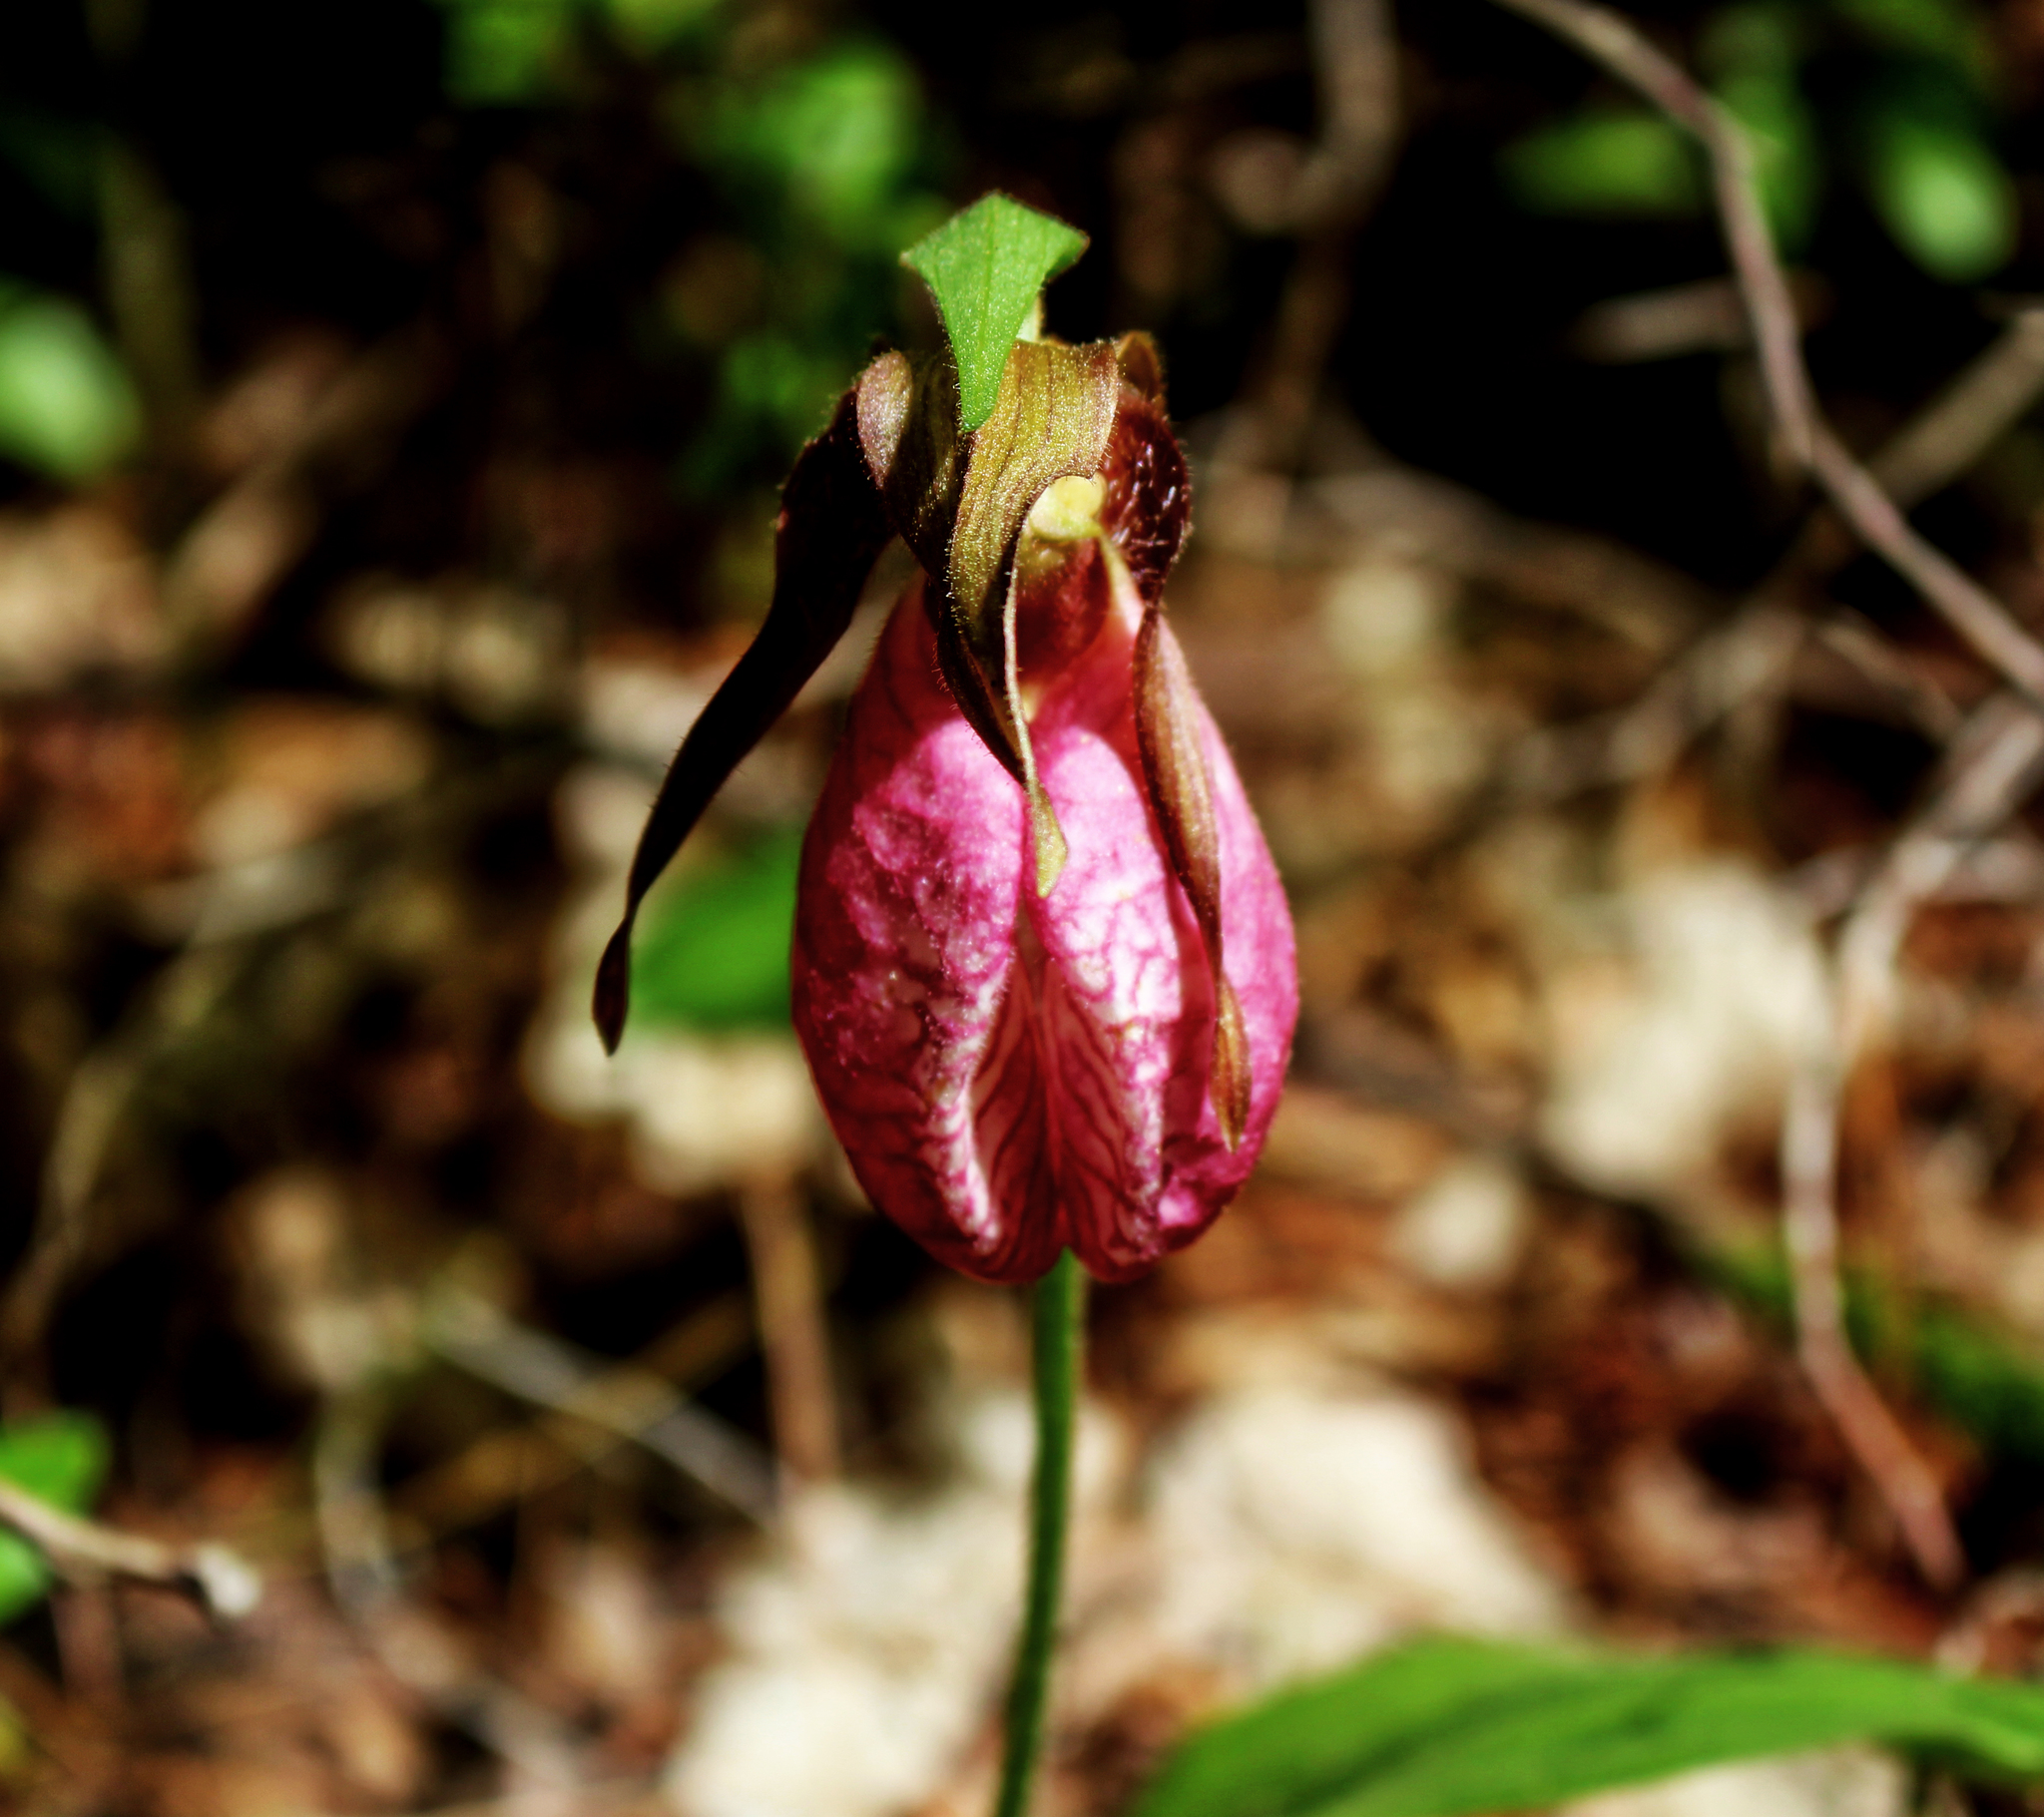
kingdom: Plantae
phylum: Tracheophyta
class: Liliopsida
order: Asparagales
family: Orchidaceae
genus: Cypripedium
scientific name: Cypripedium acaule
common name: Pink lady's-slipper
